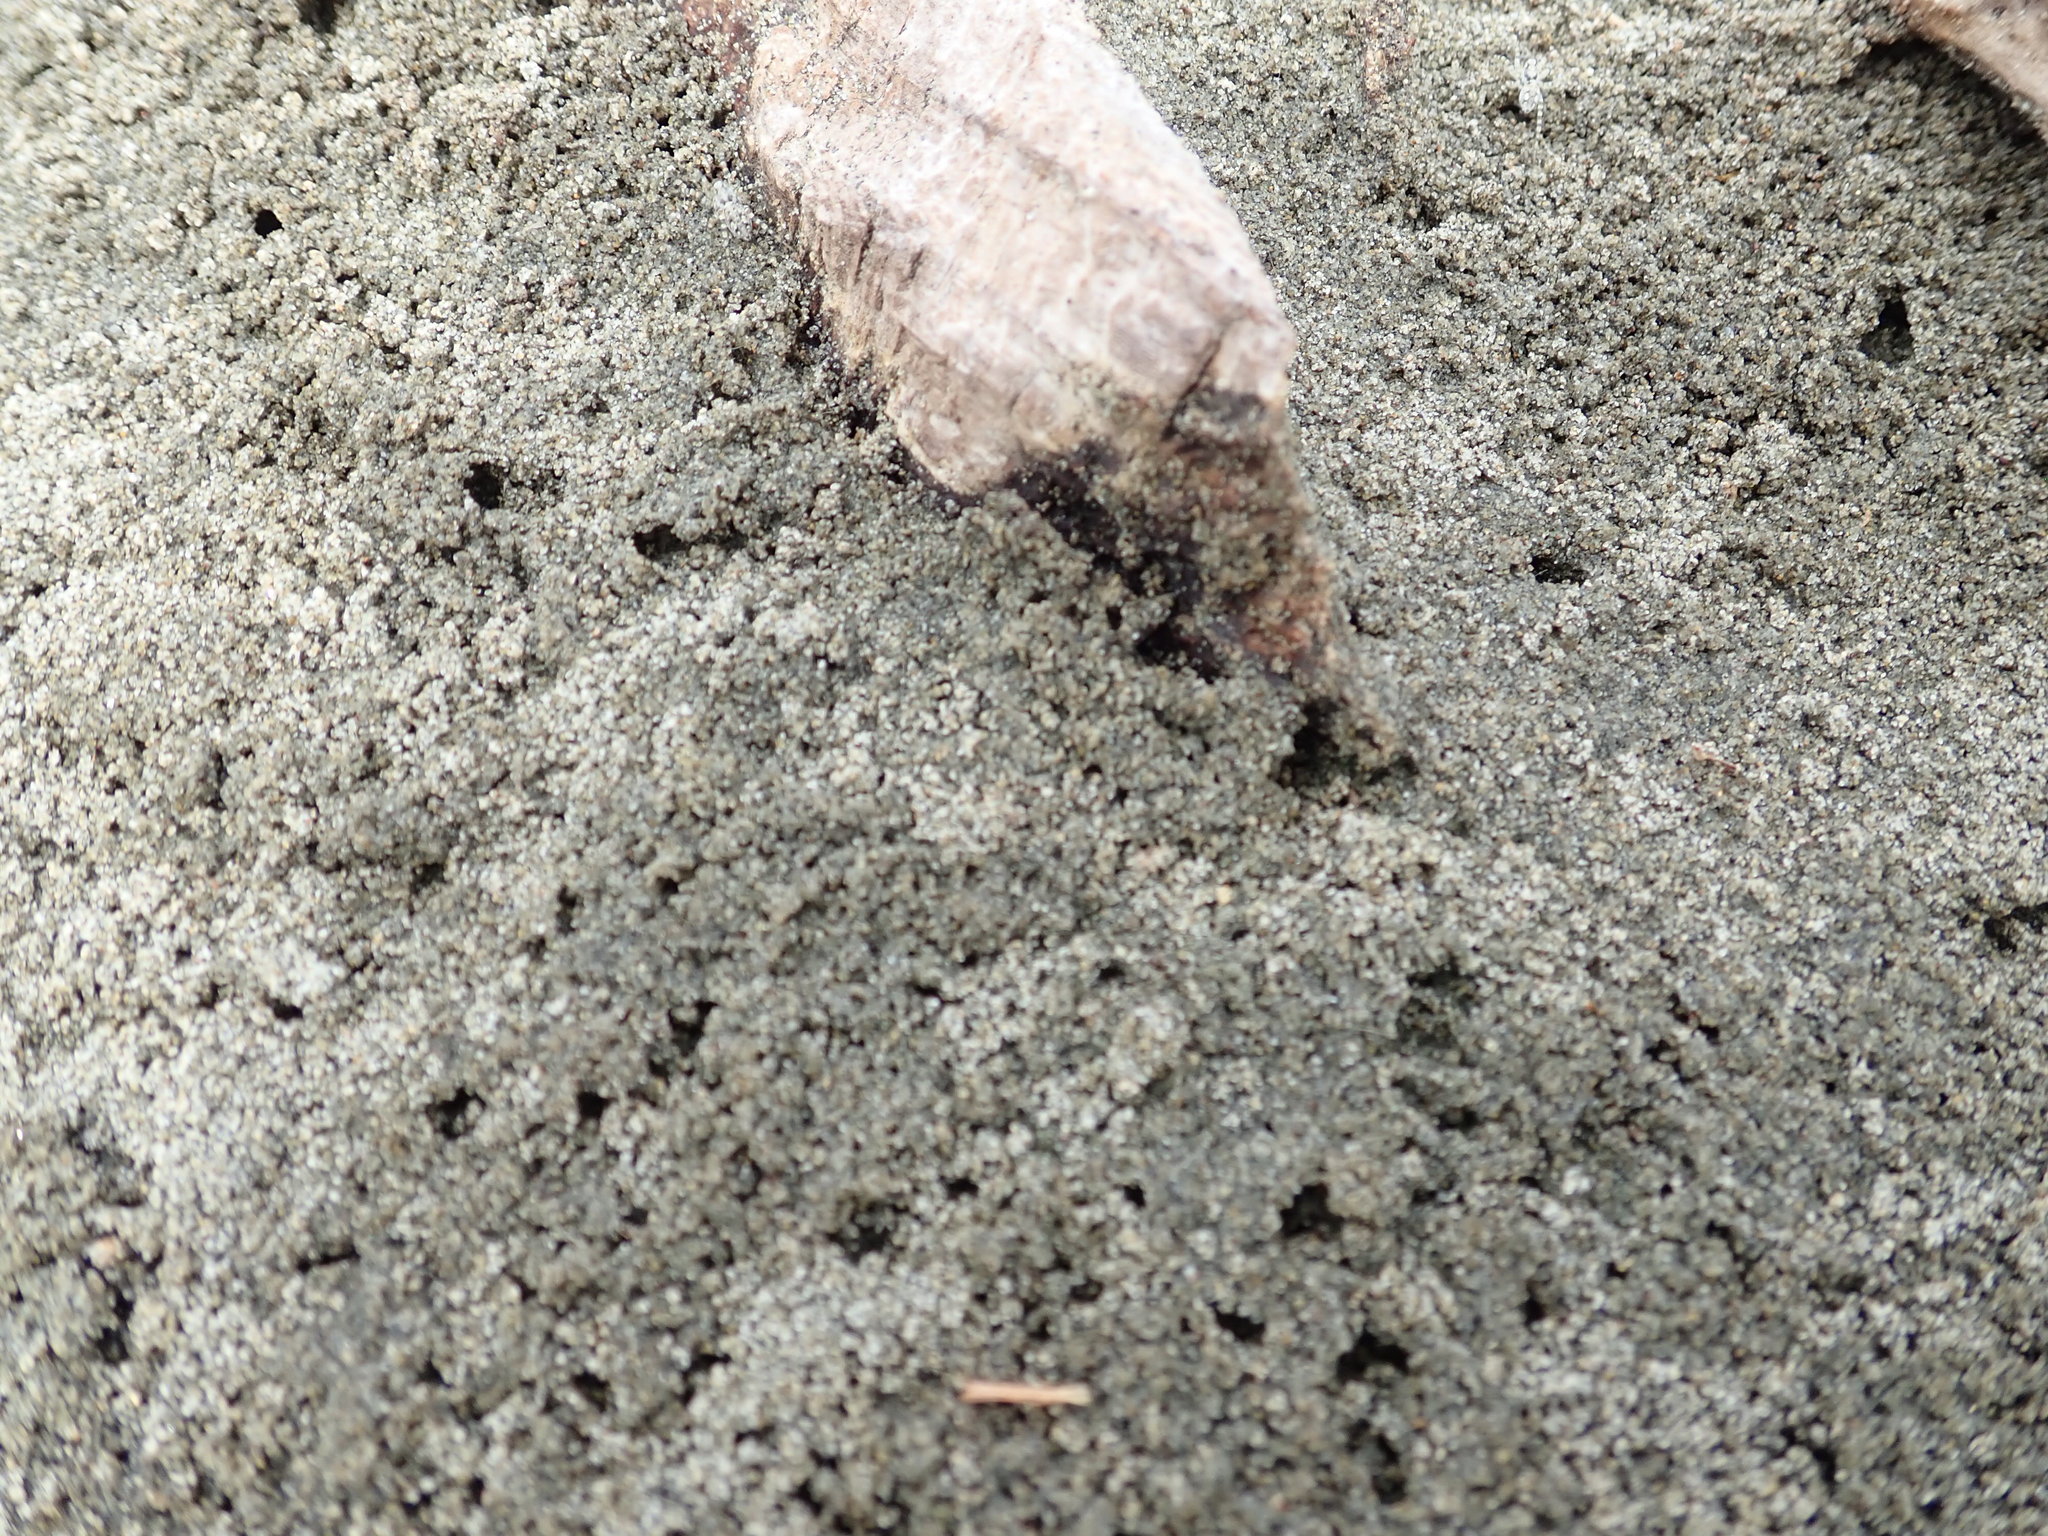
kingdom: Animalia
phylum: Arthropoda
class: Arachnida
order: Araneae
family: Lycosidae
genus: Anoteropsis
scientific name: Anoteropsis litoralis
